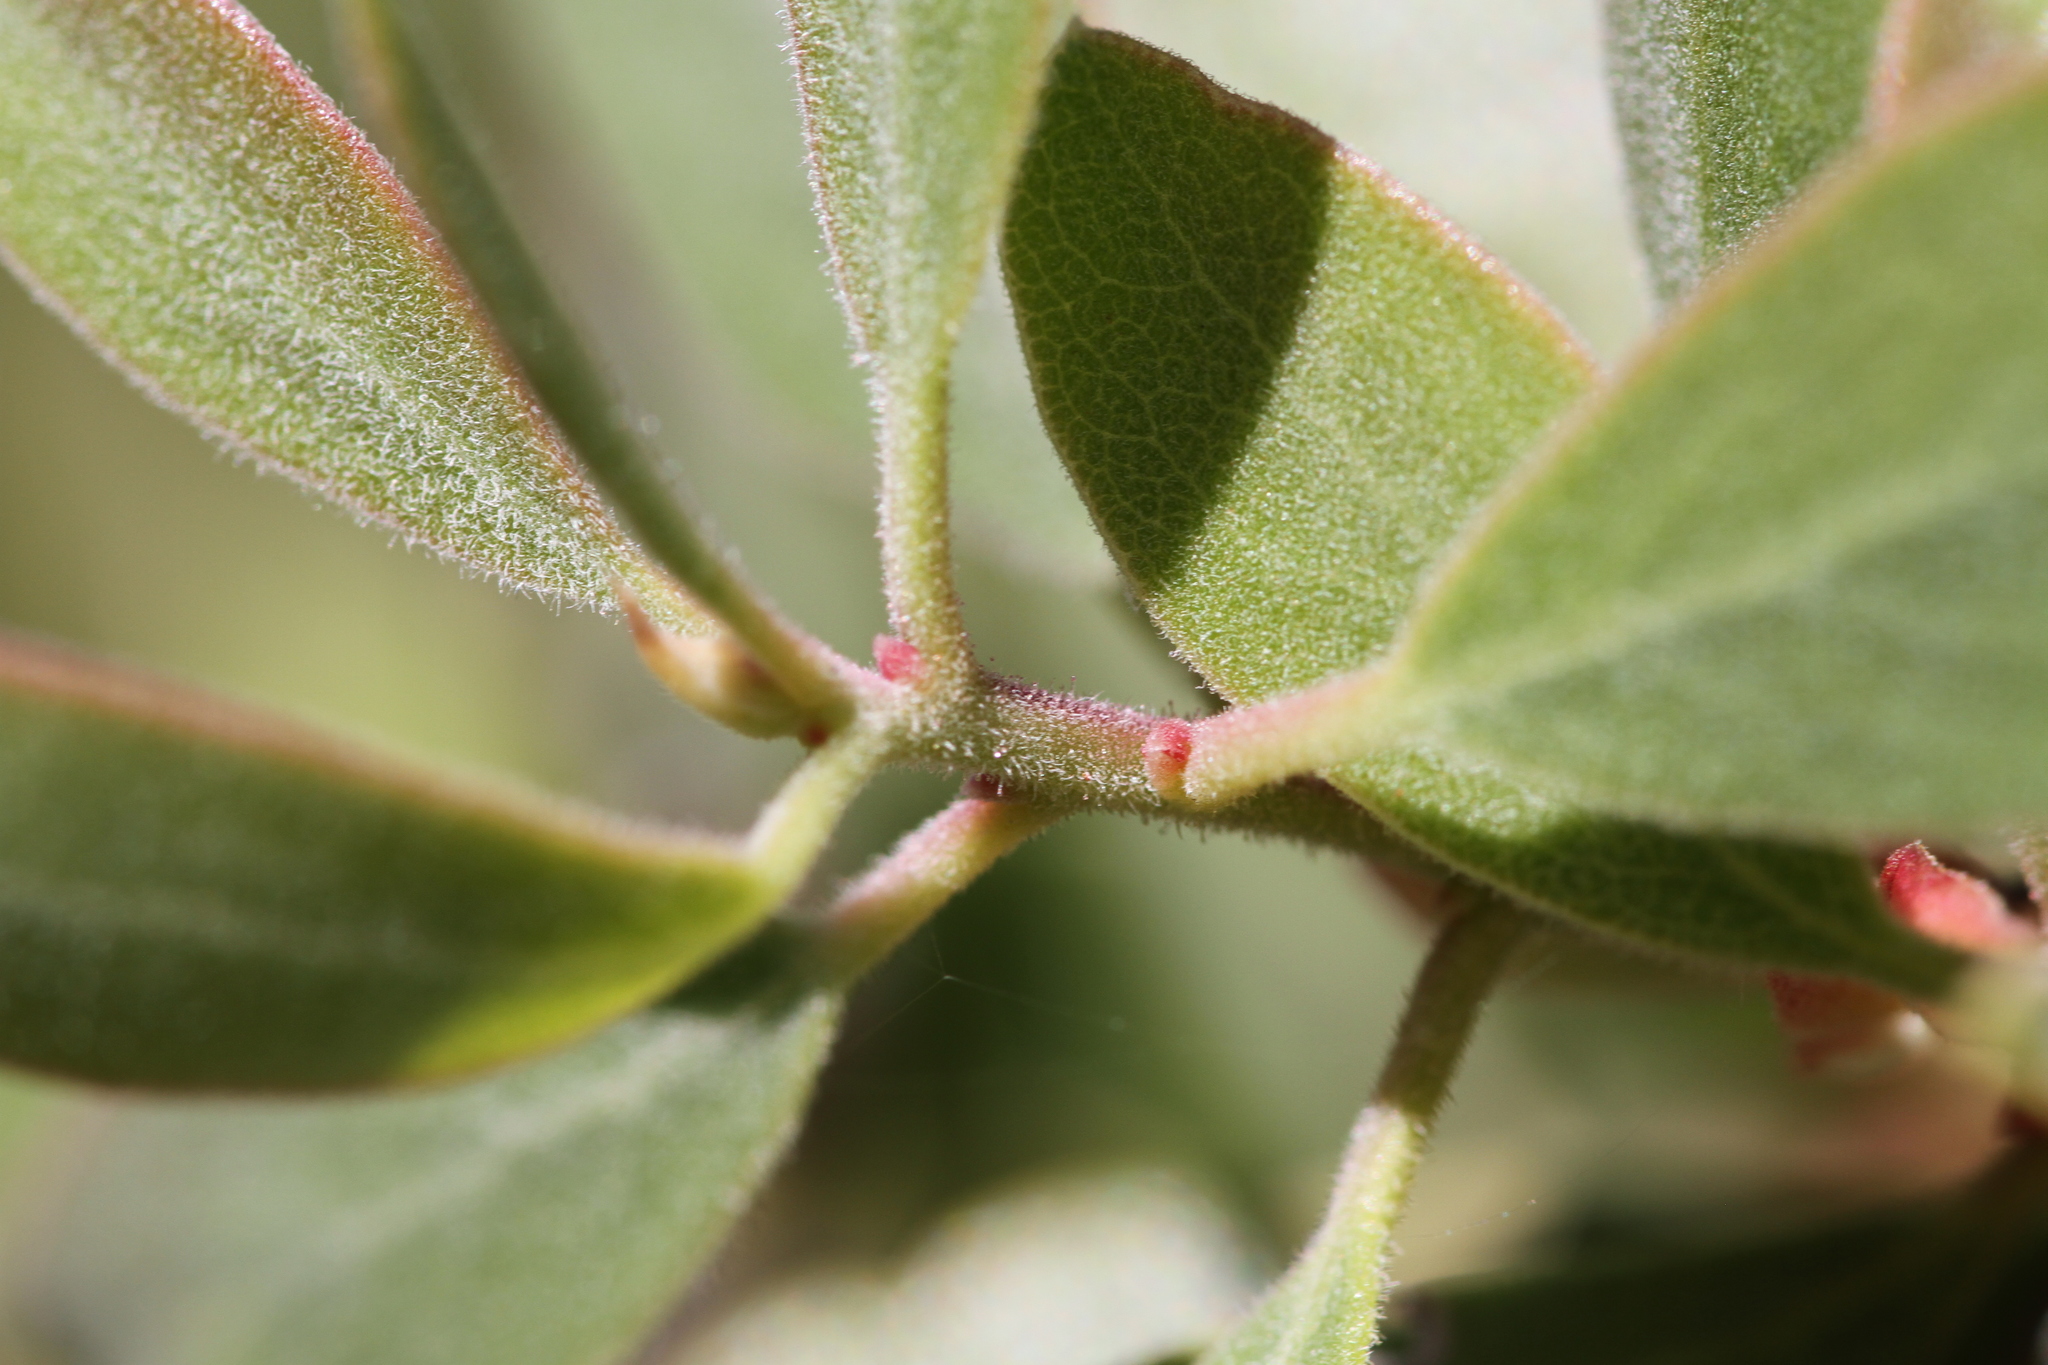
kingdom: Plantae
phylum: Tracheophyta
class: Magnoliopsida
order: Ericales
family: Ericaceae
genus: Arctostaphylos
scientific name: Arctostaphylos bakeri
